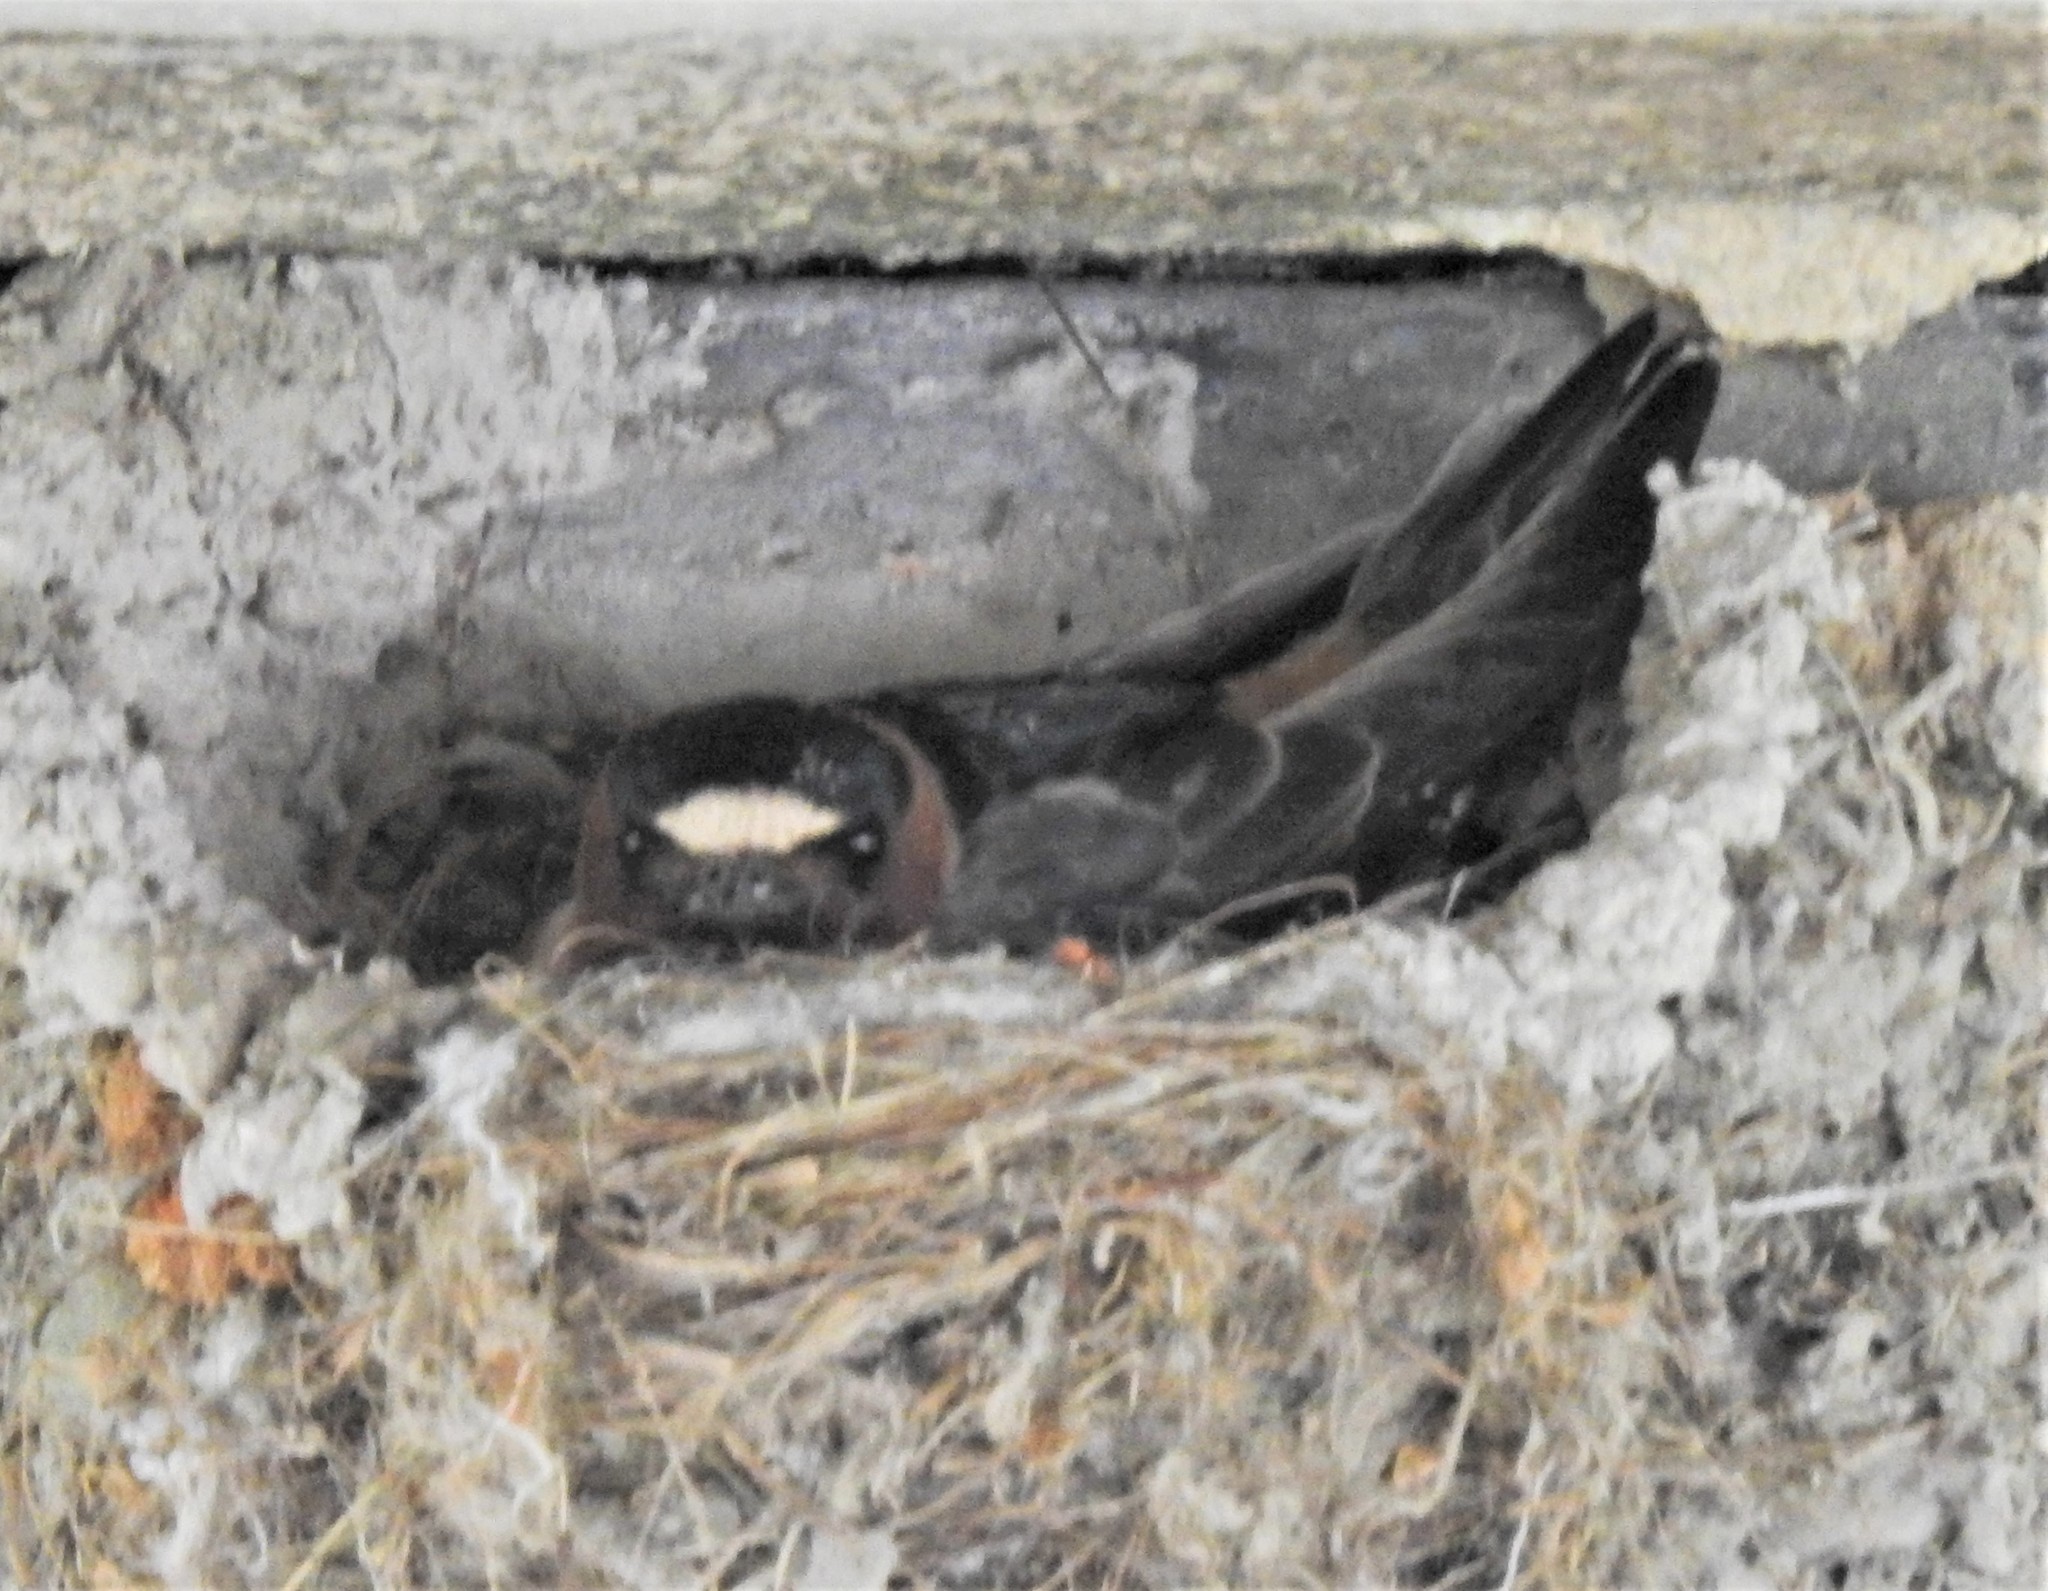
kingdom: Animalia
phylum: Chordata
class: Aves
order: Passeriformes
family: Hirundinidae
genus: Petrochelidon
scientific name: Petrochelidon pyrrhonota
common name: American cliff swallow
